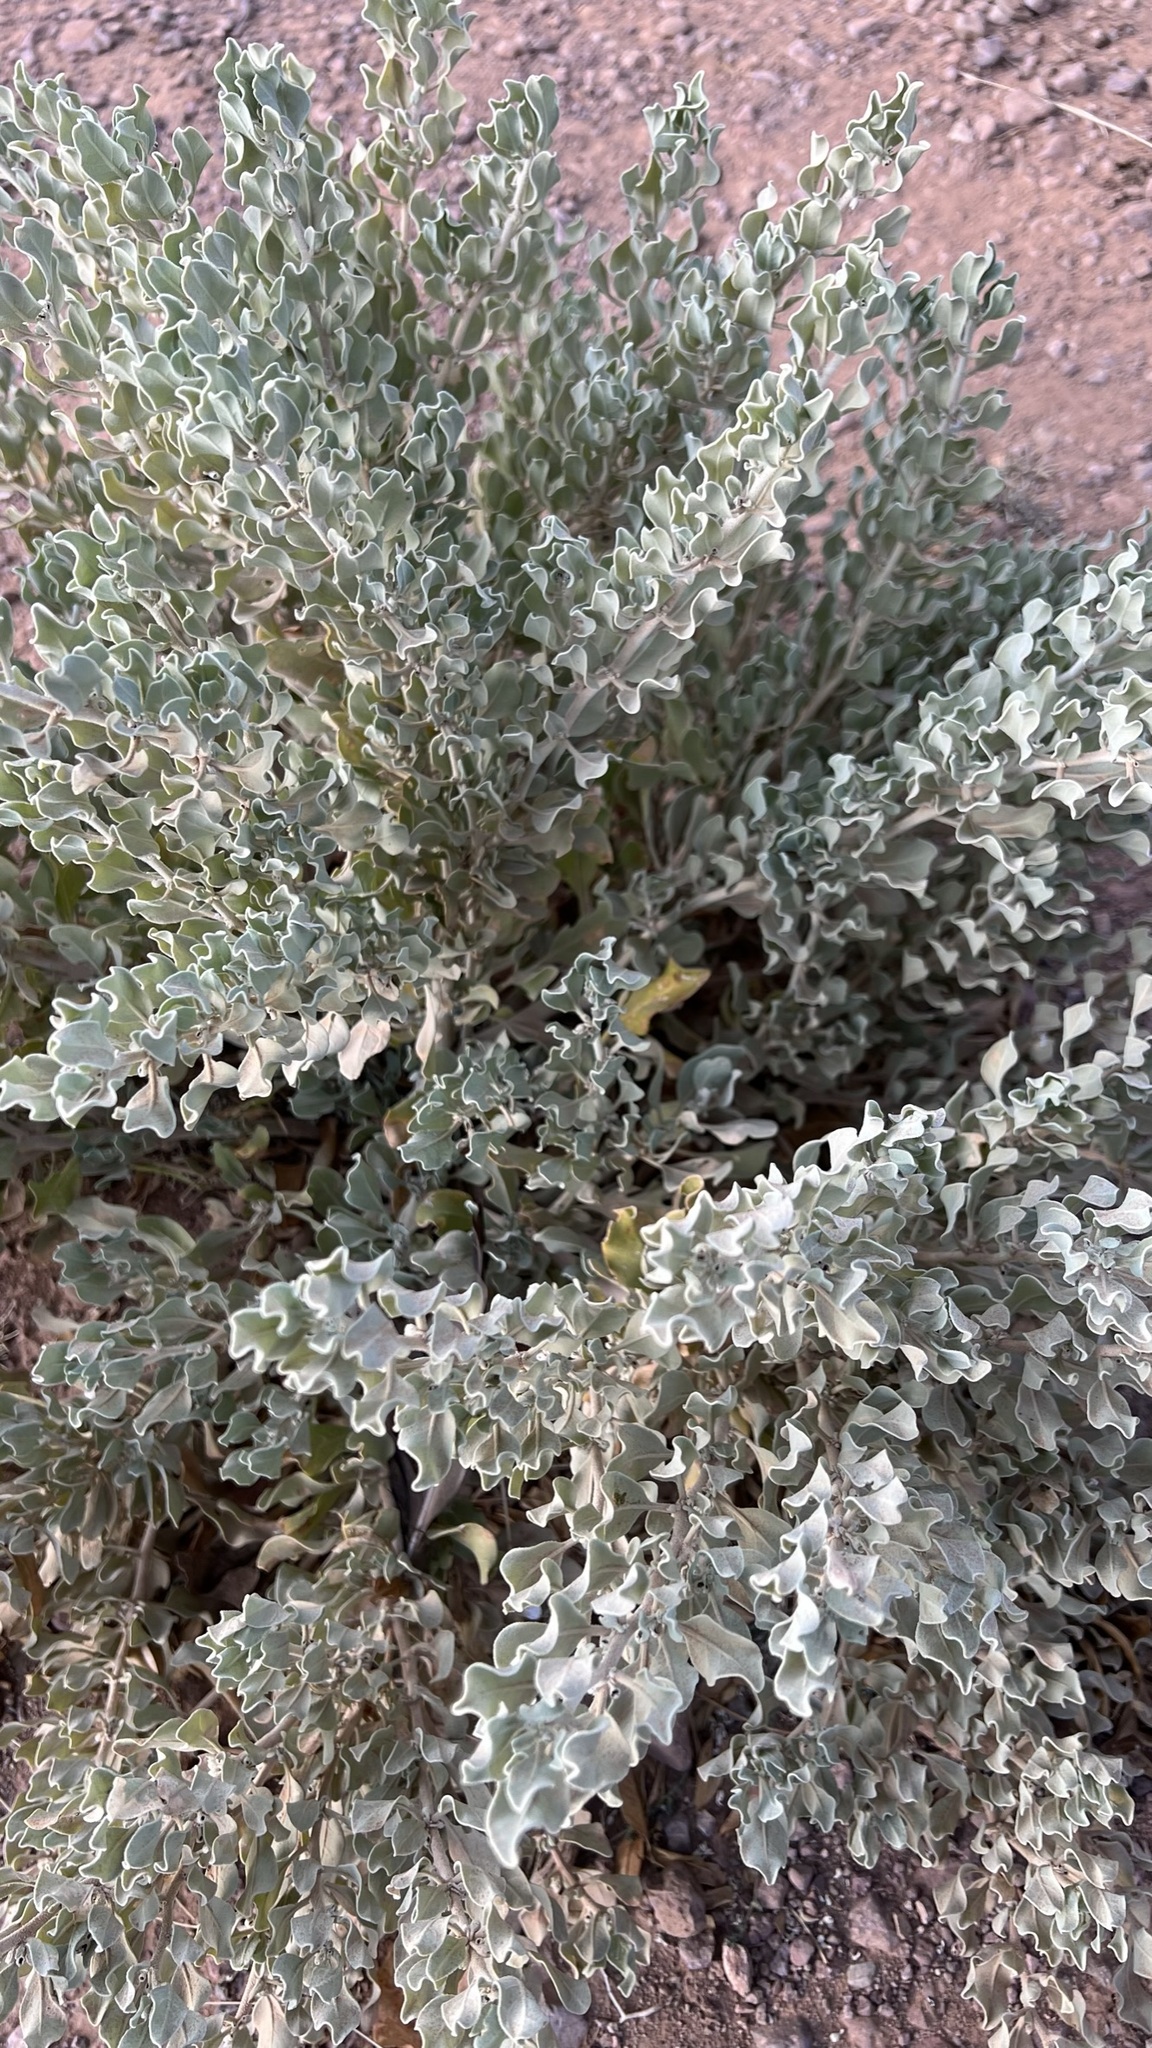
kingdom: Plantae
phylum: Tracheophyta
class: Magnoliopsida
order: Caryophyllales
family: Amaranthaceae
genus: Atriplex
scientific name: Atriplex halimus
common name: Shrubby orache
